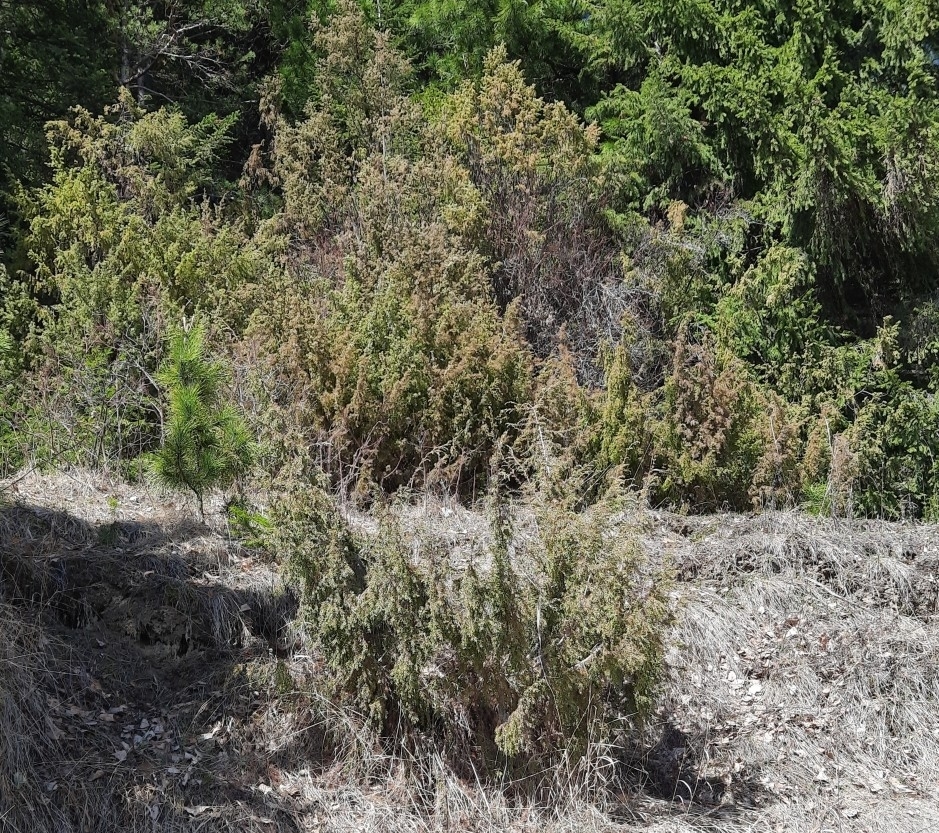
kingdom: Plantae
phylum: Tracheophyta
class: Pinopsida
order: Pinales
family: Cupressaceae
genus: Juniperus
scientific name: Juniperus communis
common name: Common juniper
